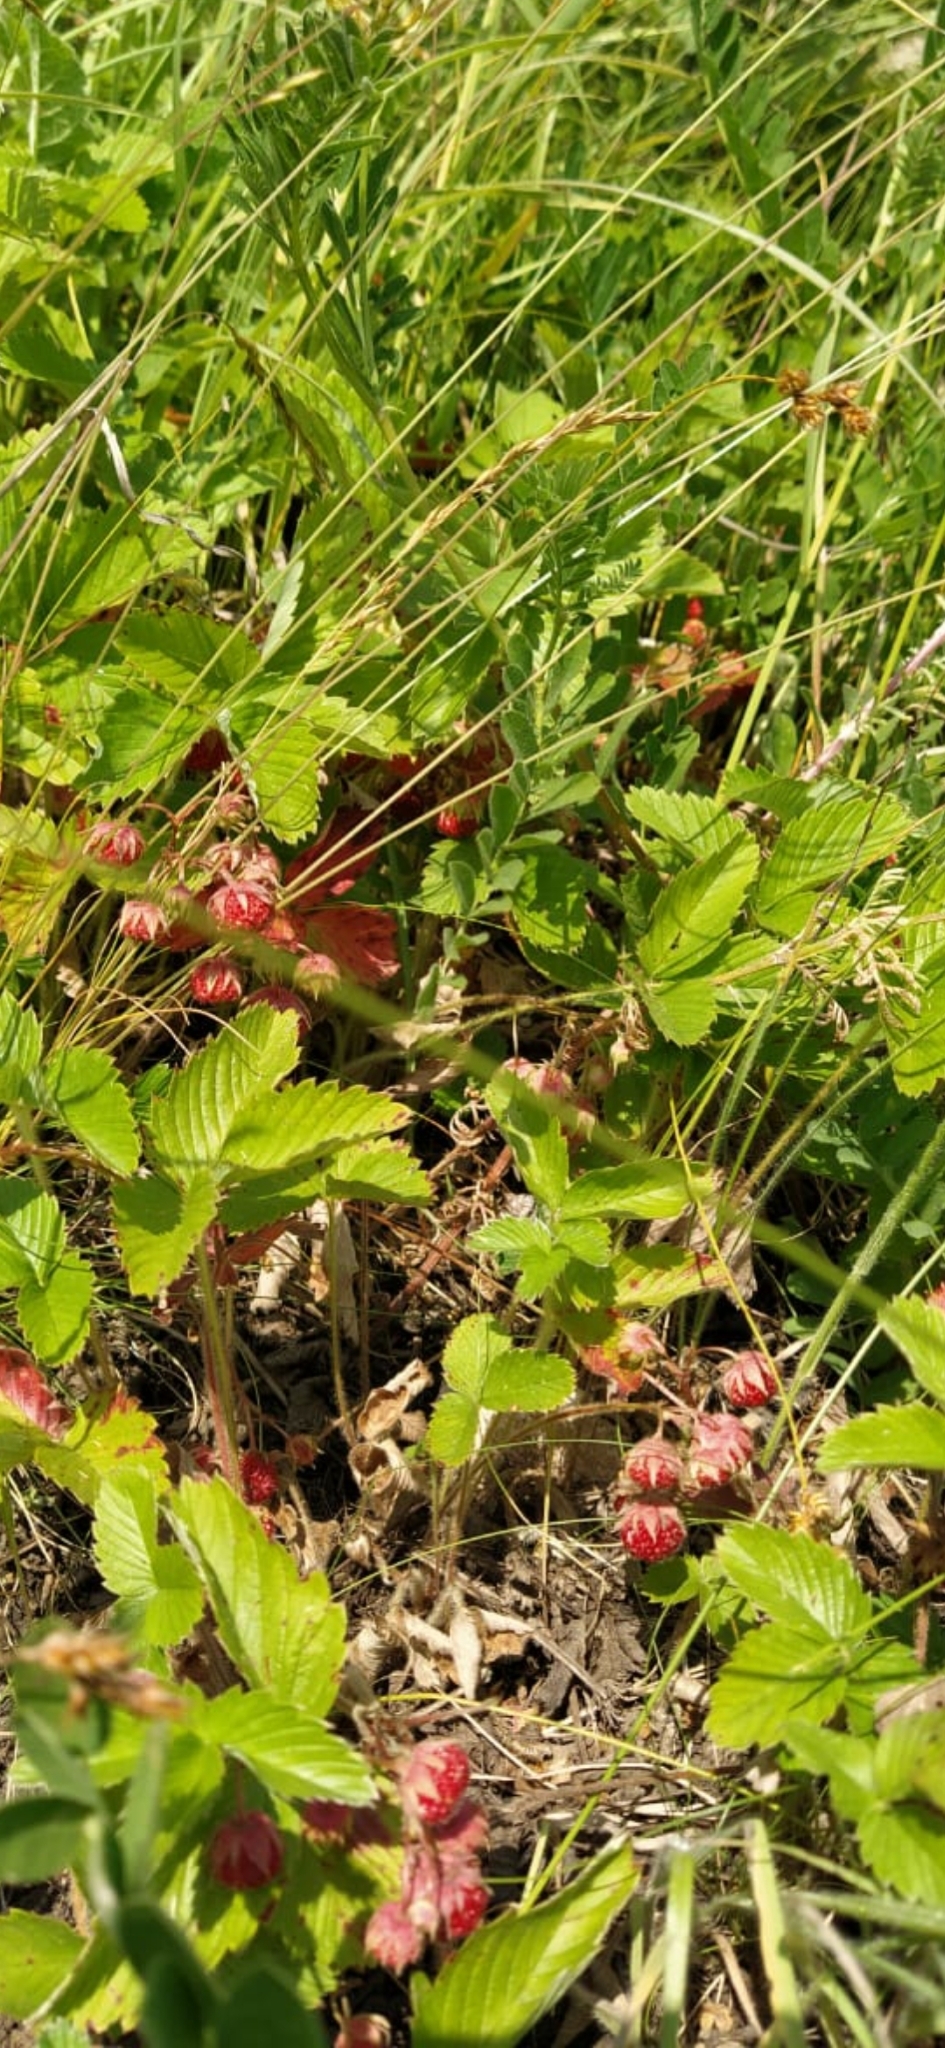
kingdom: Plantae
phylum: Tracheophyta
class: Magnoliopsida
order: Rosales
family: Rosaceae
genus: Fragaria
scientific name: Fragaria viridis
